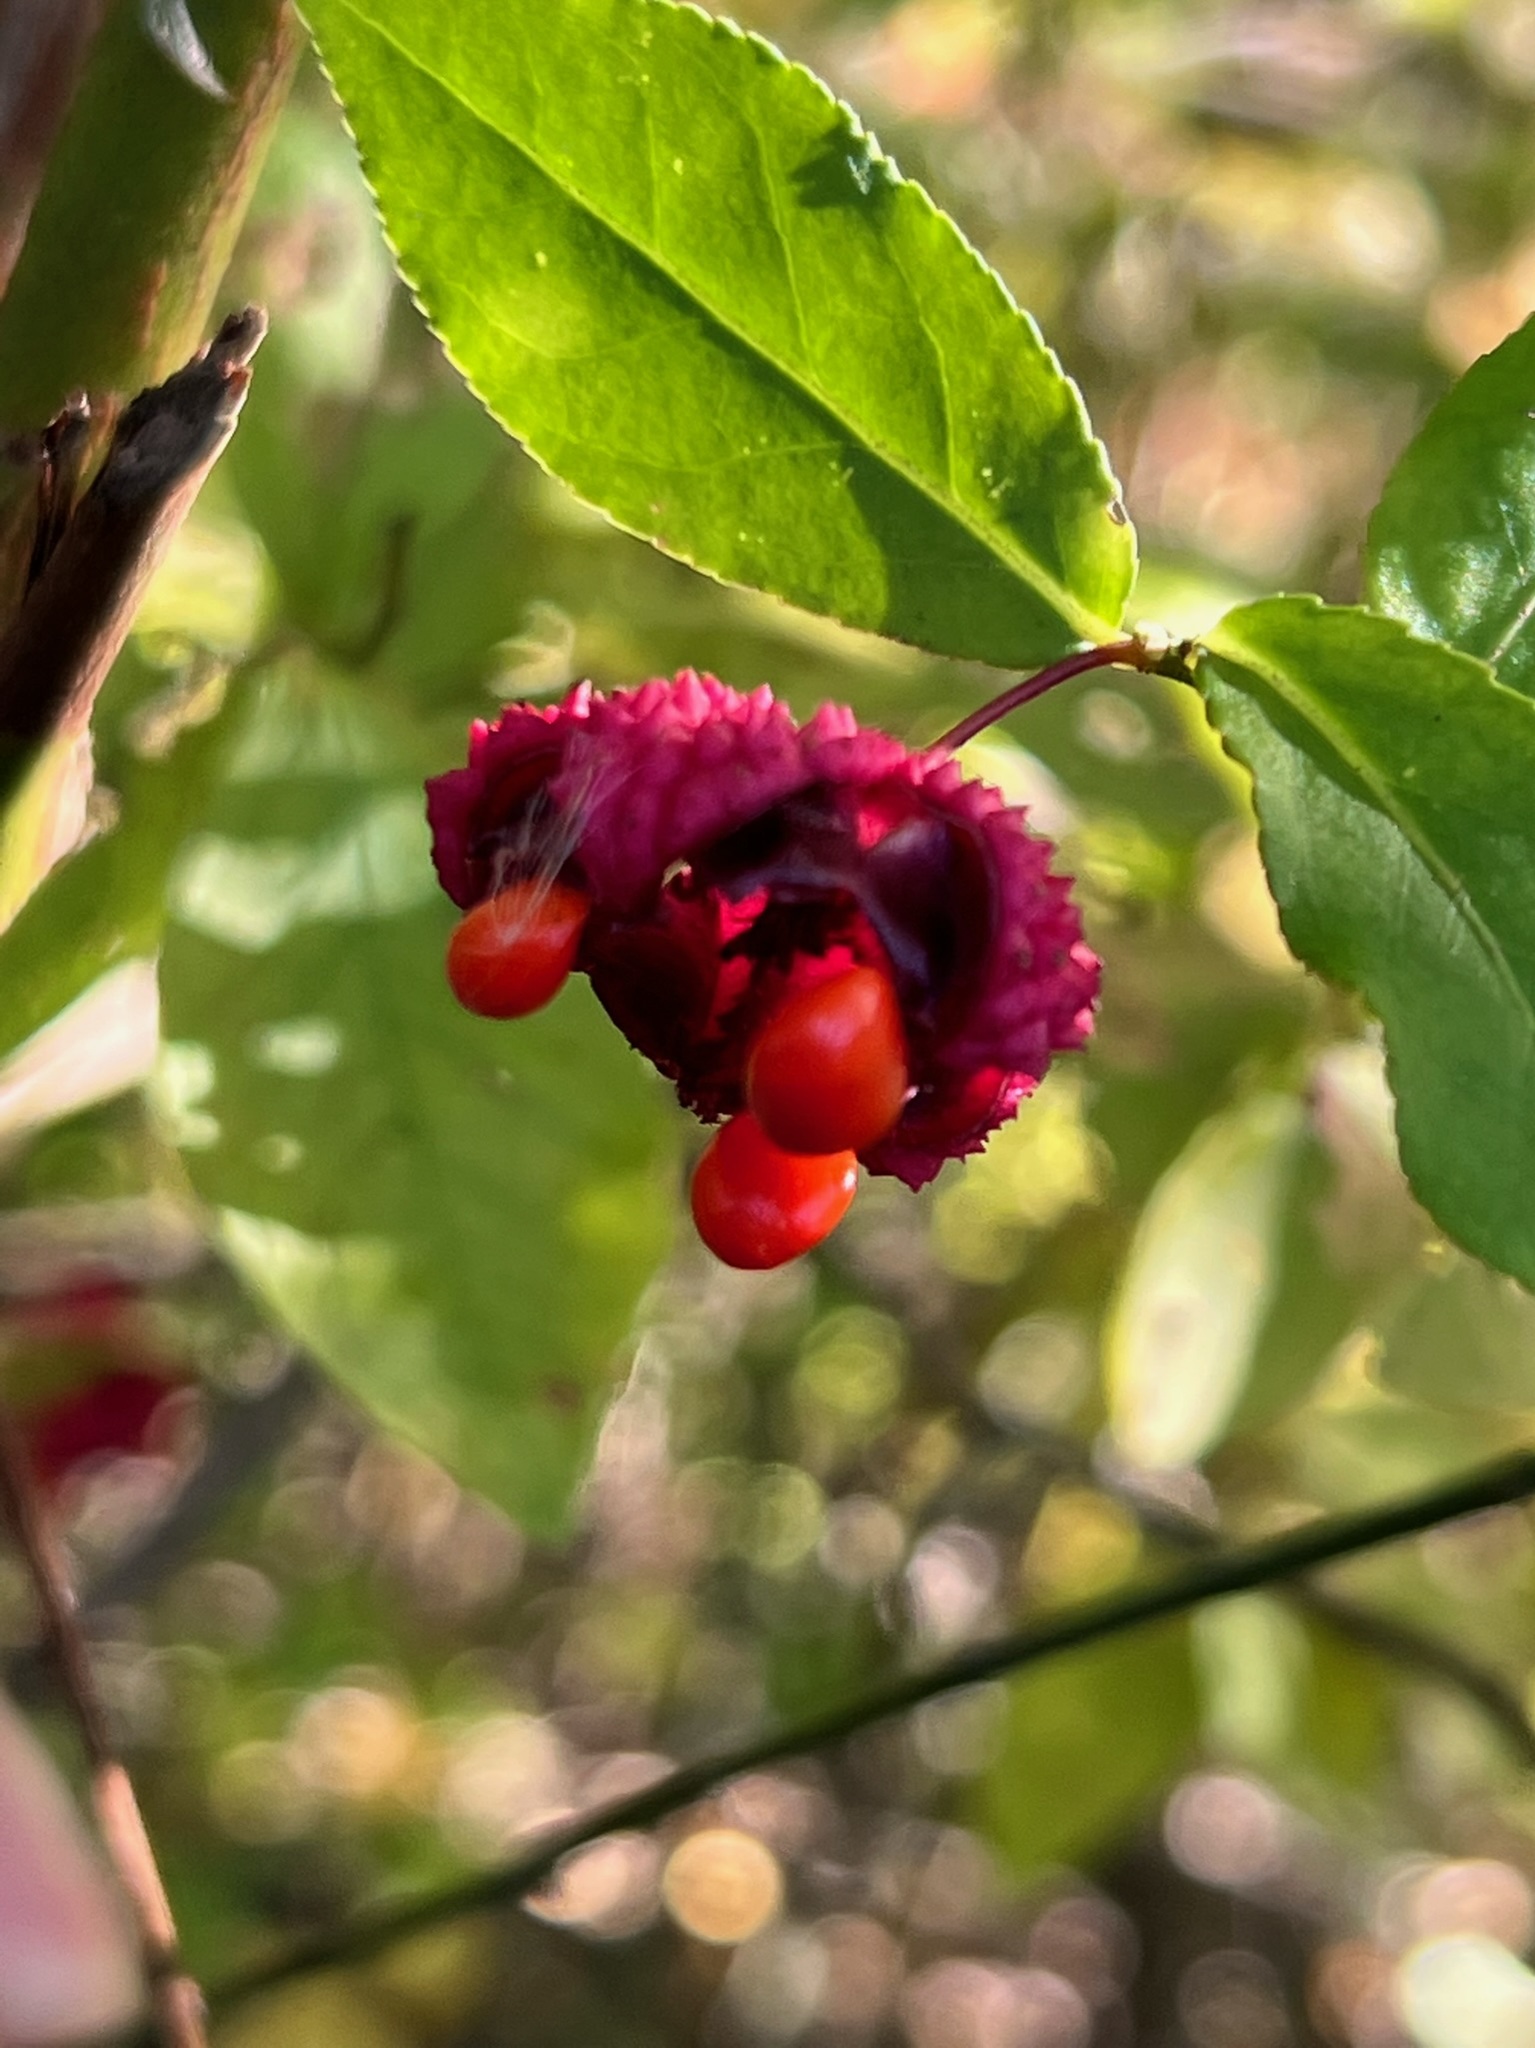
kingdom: Plantae
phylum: Tracheophyta
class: Magnoliopsida
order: Celastrales
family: Celastraceae
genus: Euonymus
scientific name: Euonymus americanus
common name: Bursting-heart
